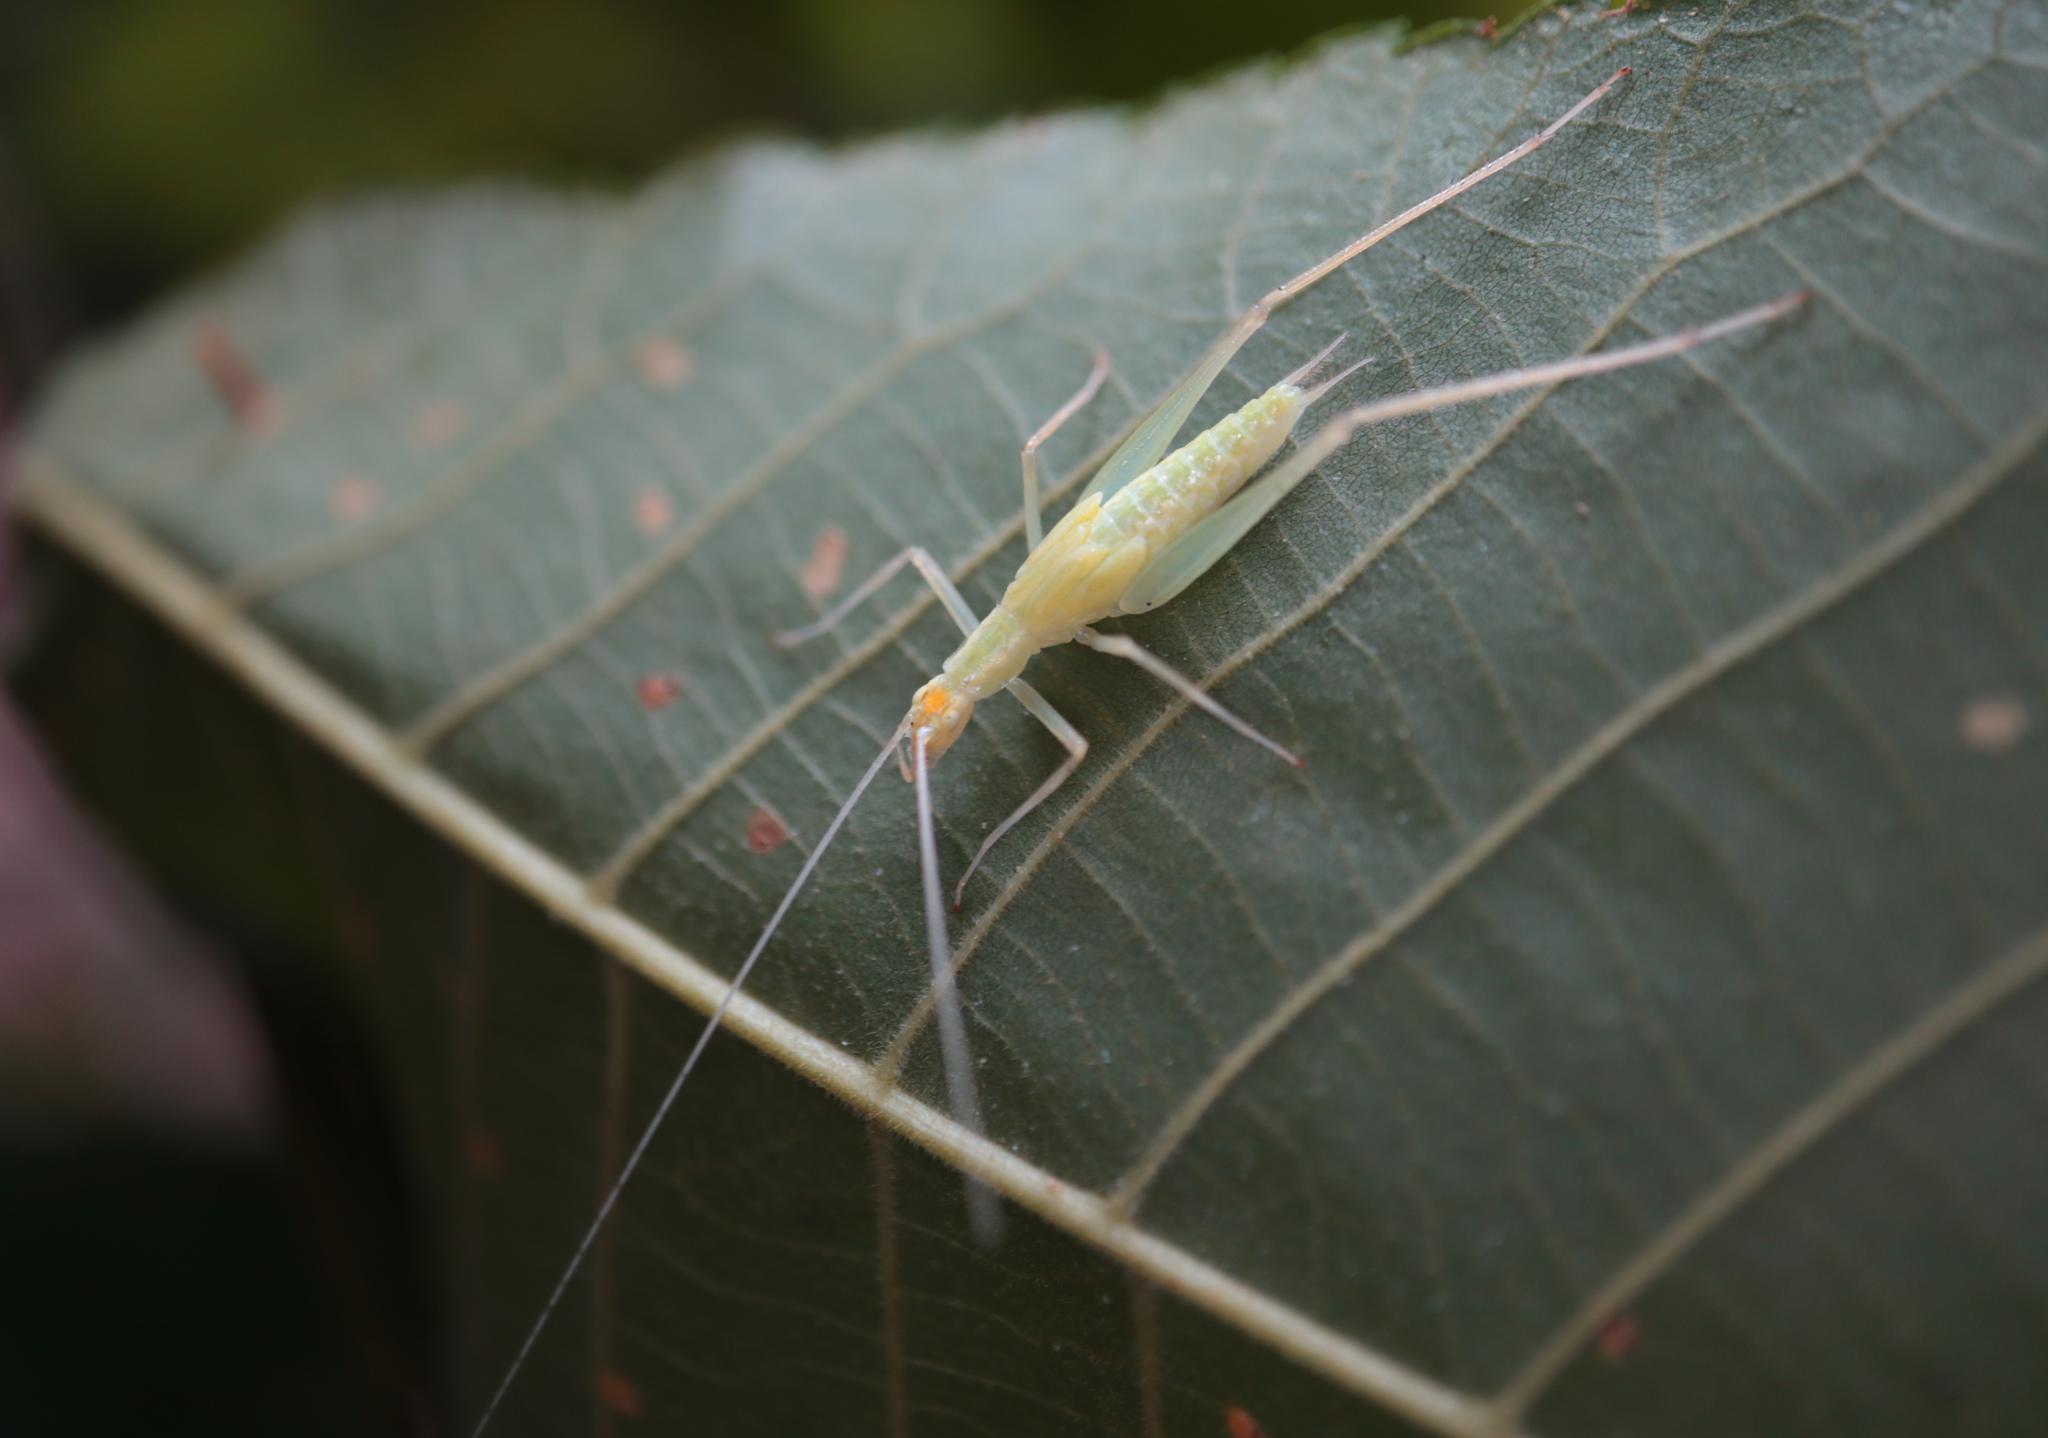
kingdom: Animalia
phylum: Arthropoda
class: Insecta
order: Orthoptera
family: Gryllidae
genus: Oecanthus
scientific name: Oecanthus niveus
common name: Narrow-winged tree cricket
